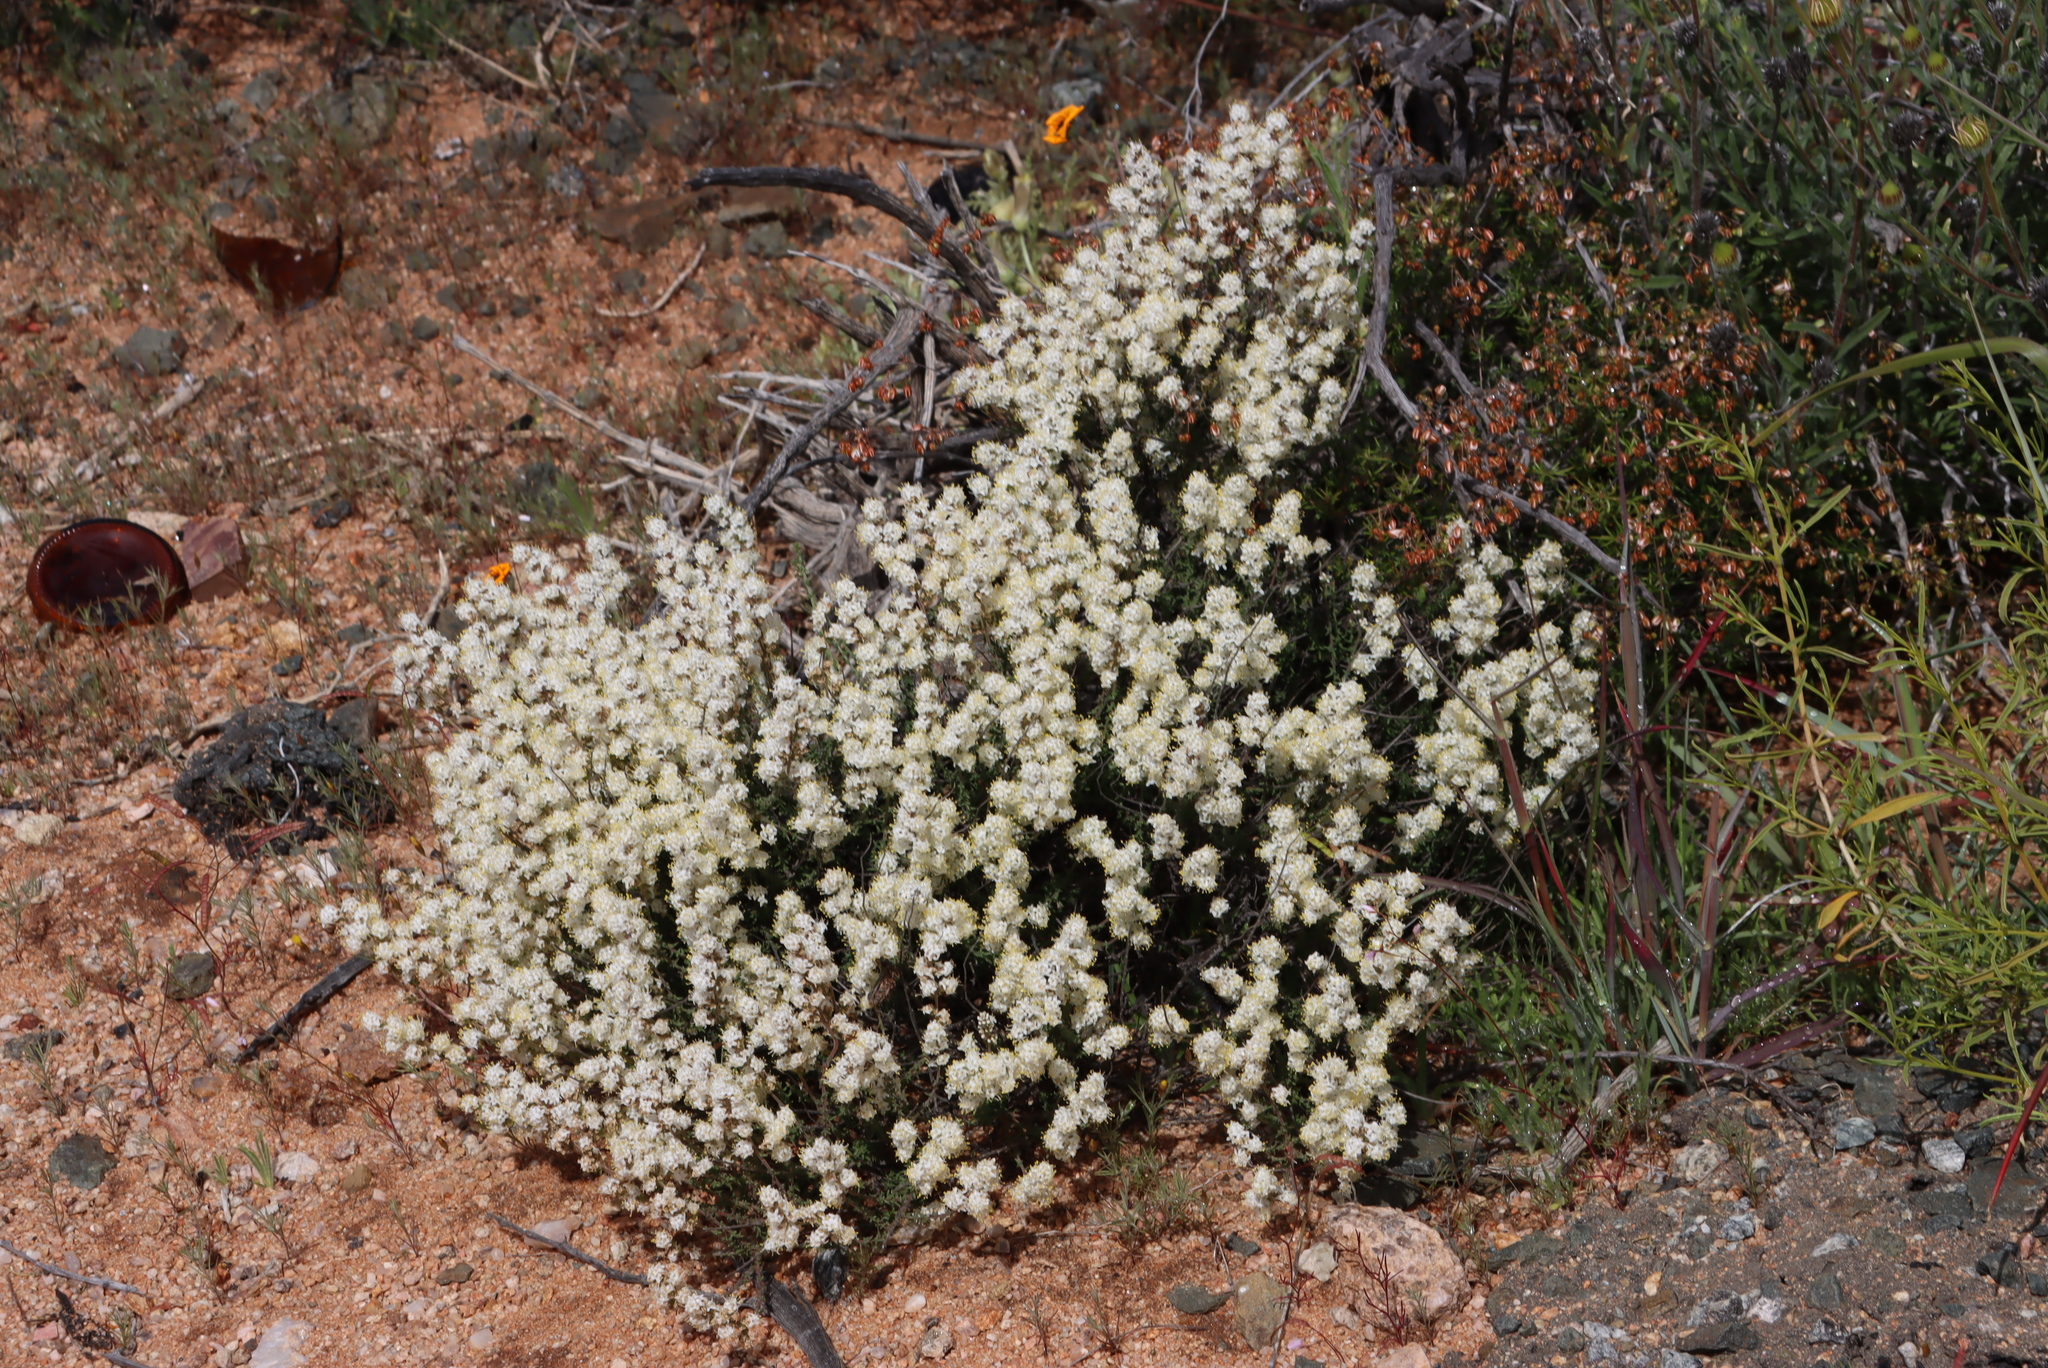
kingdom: Plantae
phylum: Tracheophyta
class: Magnoliopsida
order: Lamiales
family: Scrophulariaceae
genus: Selago
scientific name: Selago angustibractea
